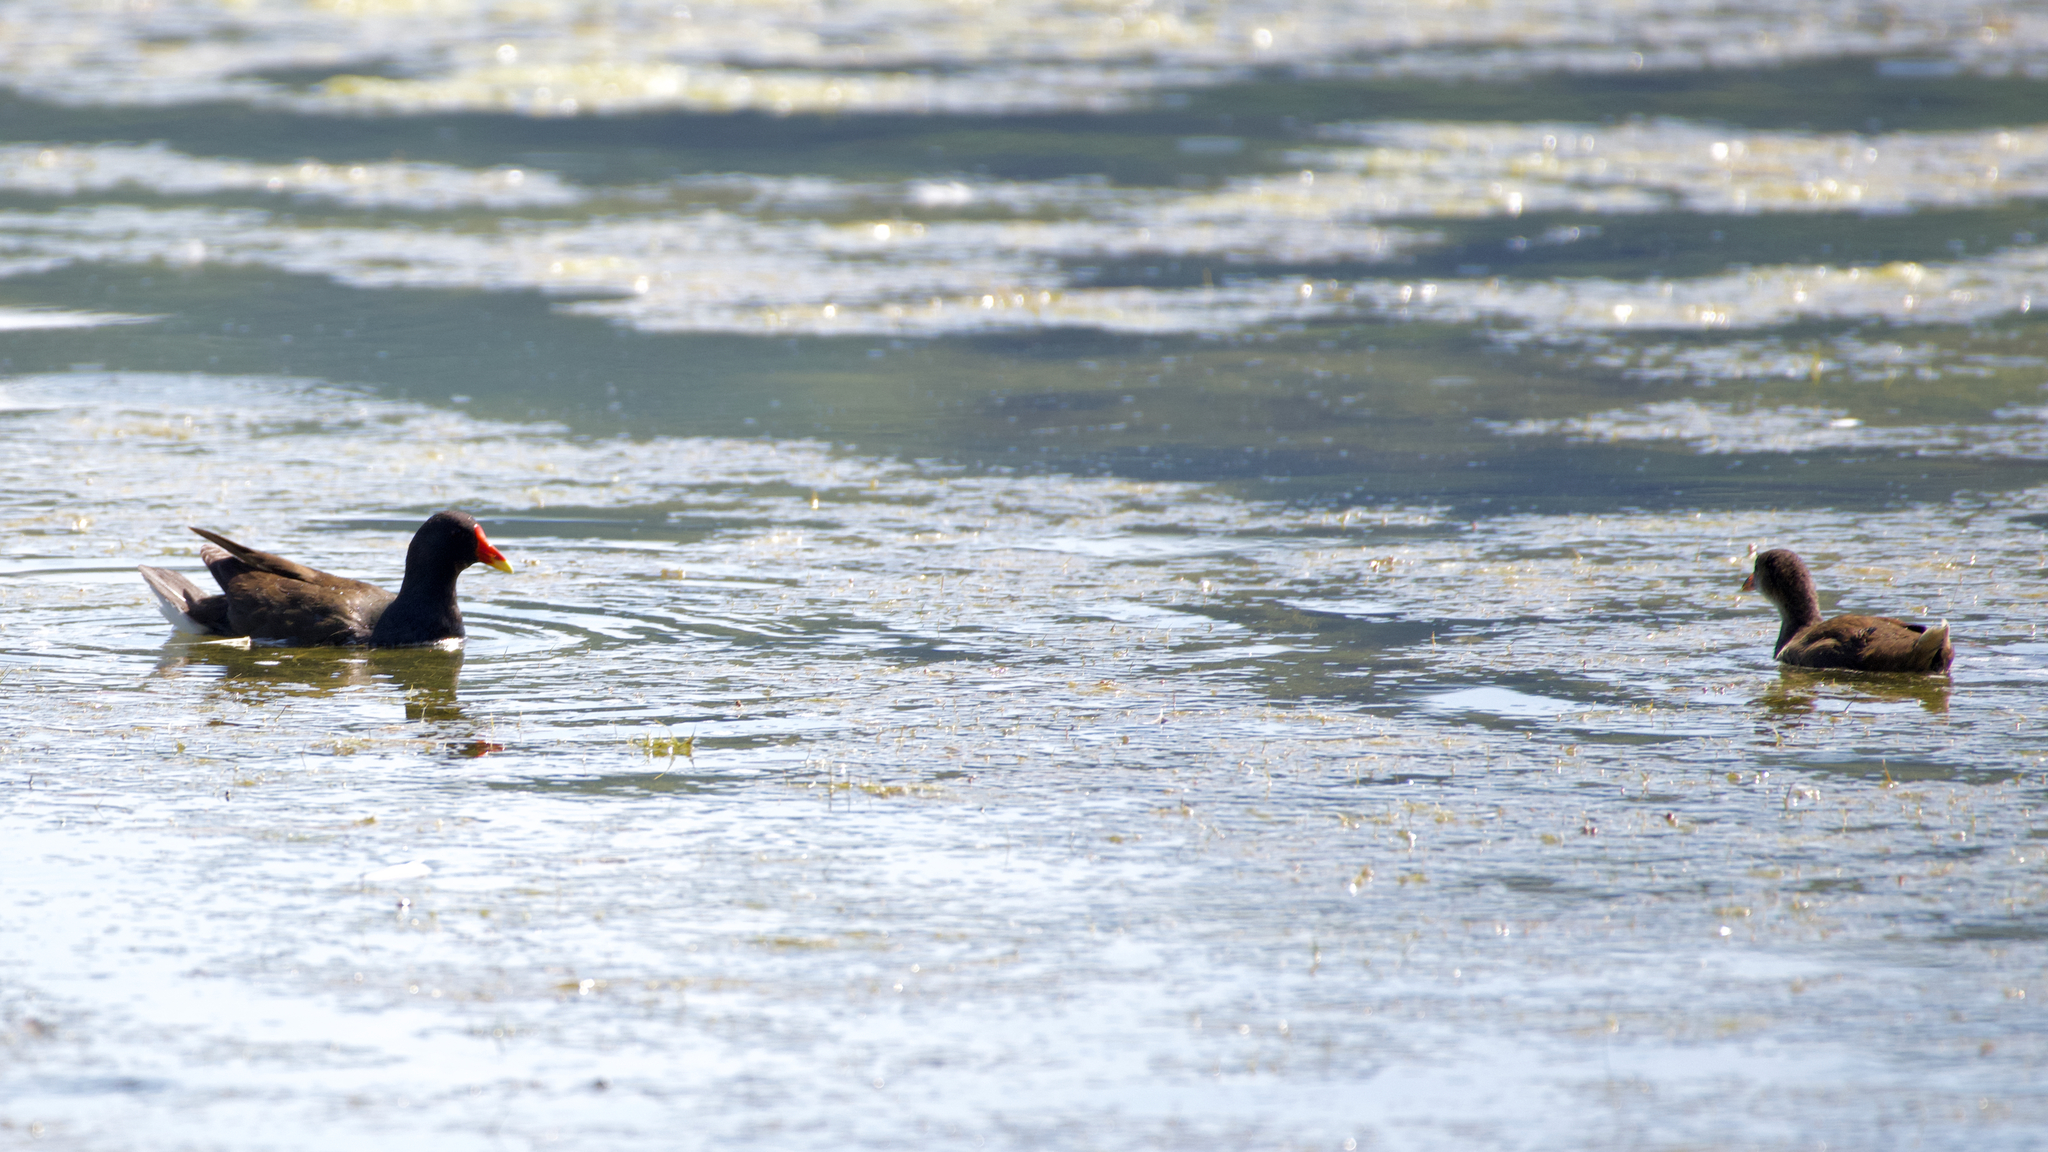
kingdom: Animalia
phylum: Chordata
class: Aves
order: Gruiformes
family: Rallidae
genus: Gallinula
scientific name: Gallinula chloropus
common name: Common moorhen
